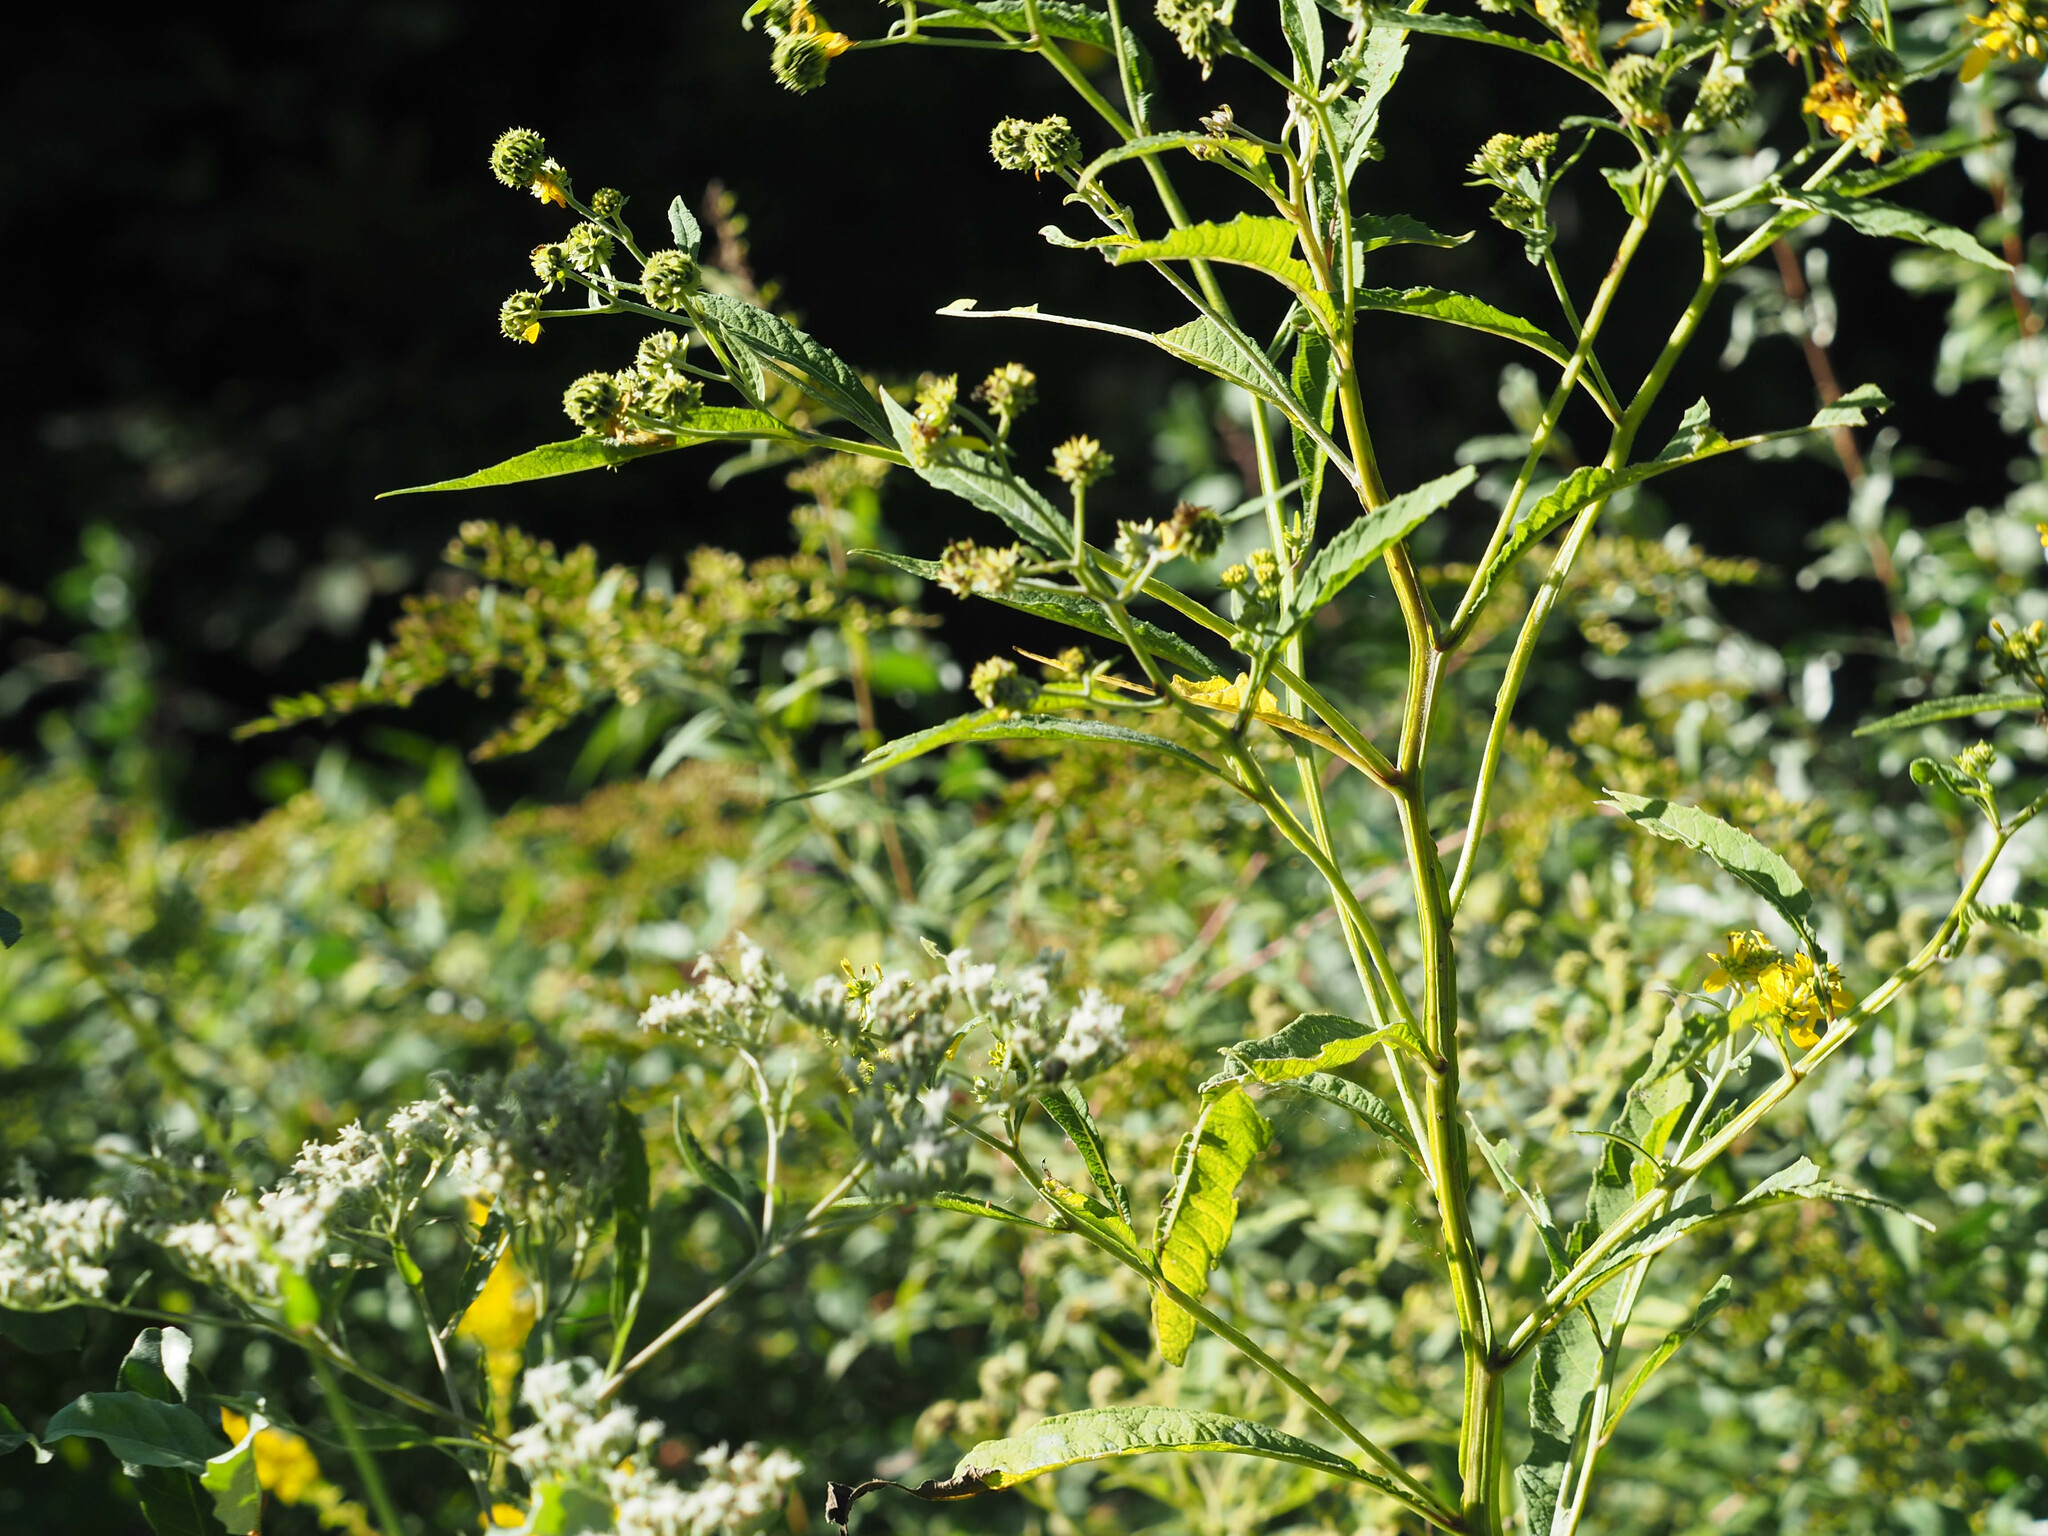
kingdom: Plantae
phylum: Tracheophyta
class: Magnoliopsida
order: Asterales
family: Asteraceae
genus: Verbesina
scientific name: Verbesina alternifolia
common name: Wingstem
